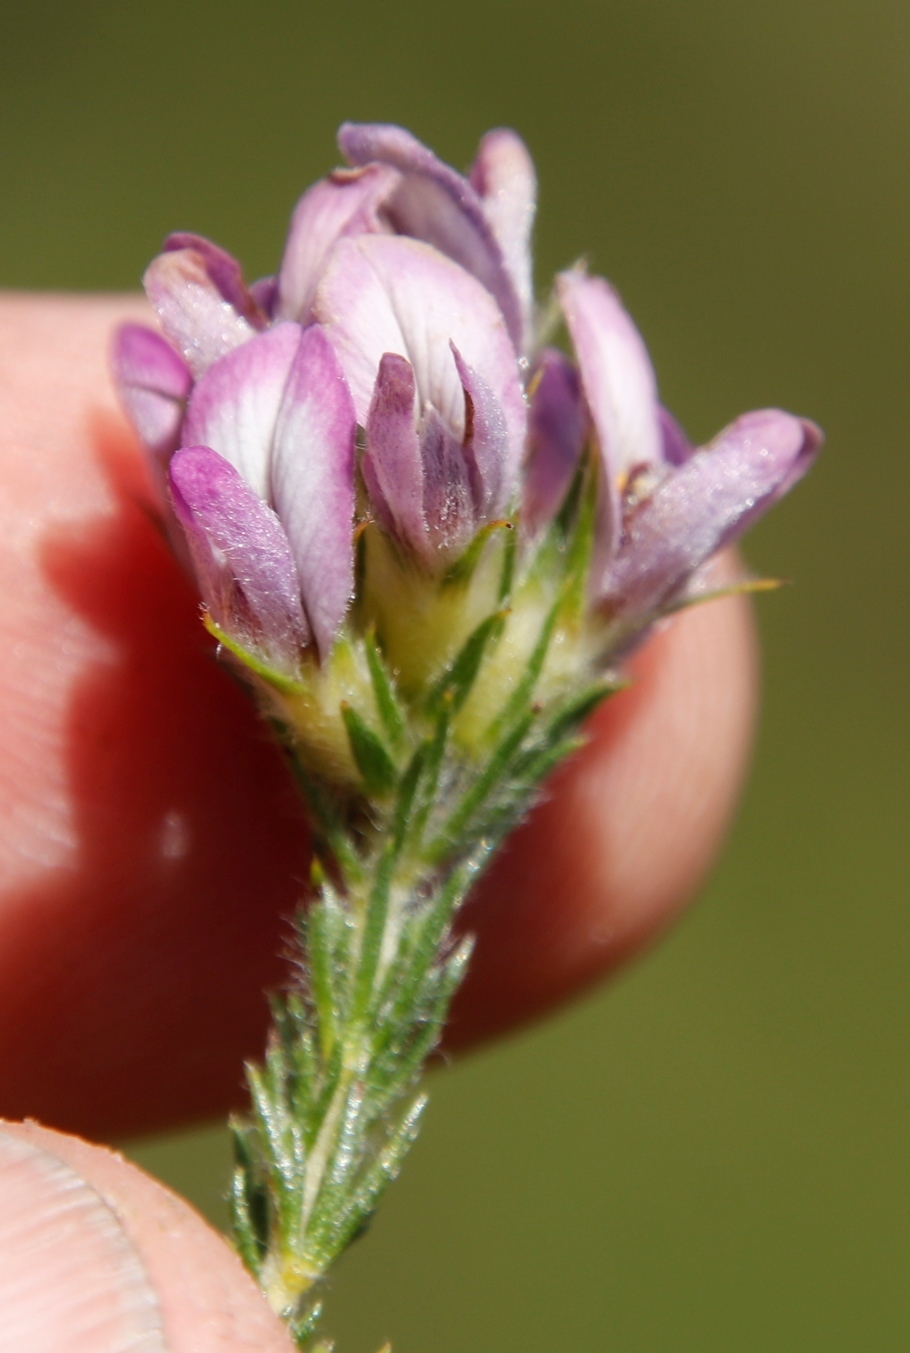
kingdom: Plantae
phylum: Tracheophyta
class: Magnoliopsida
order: Fabales
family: Fabaceae
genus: Aspalathus
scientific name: Aspalathus cephalotes
